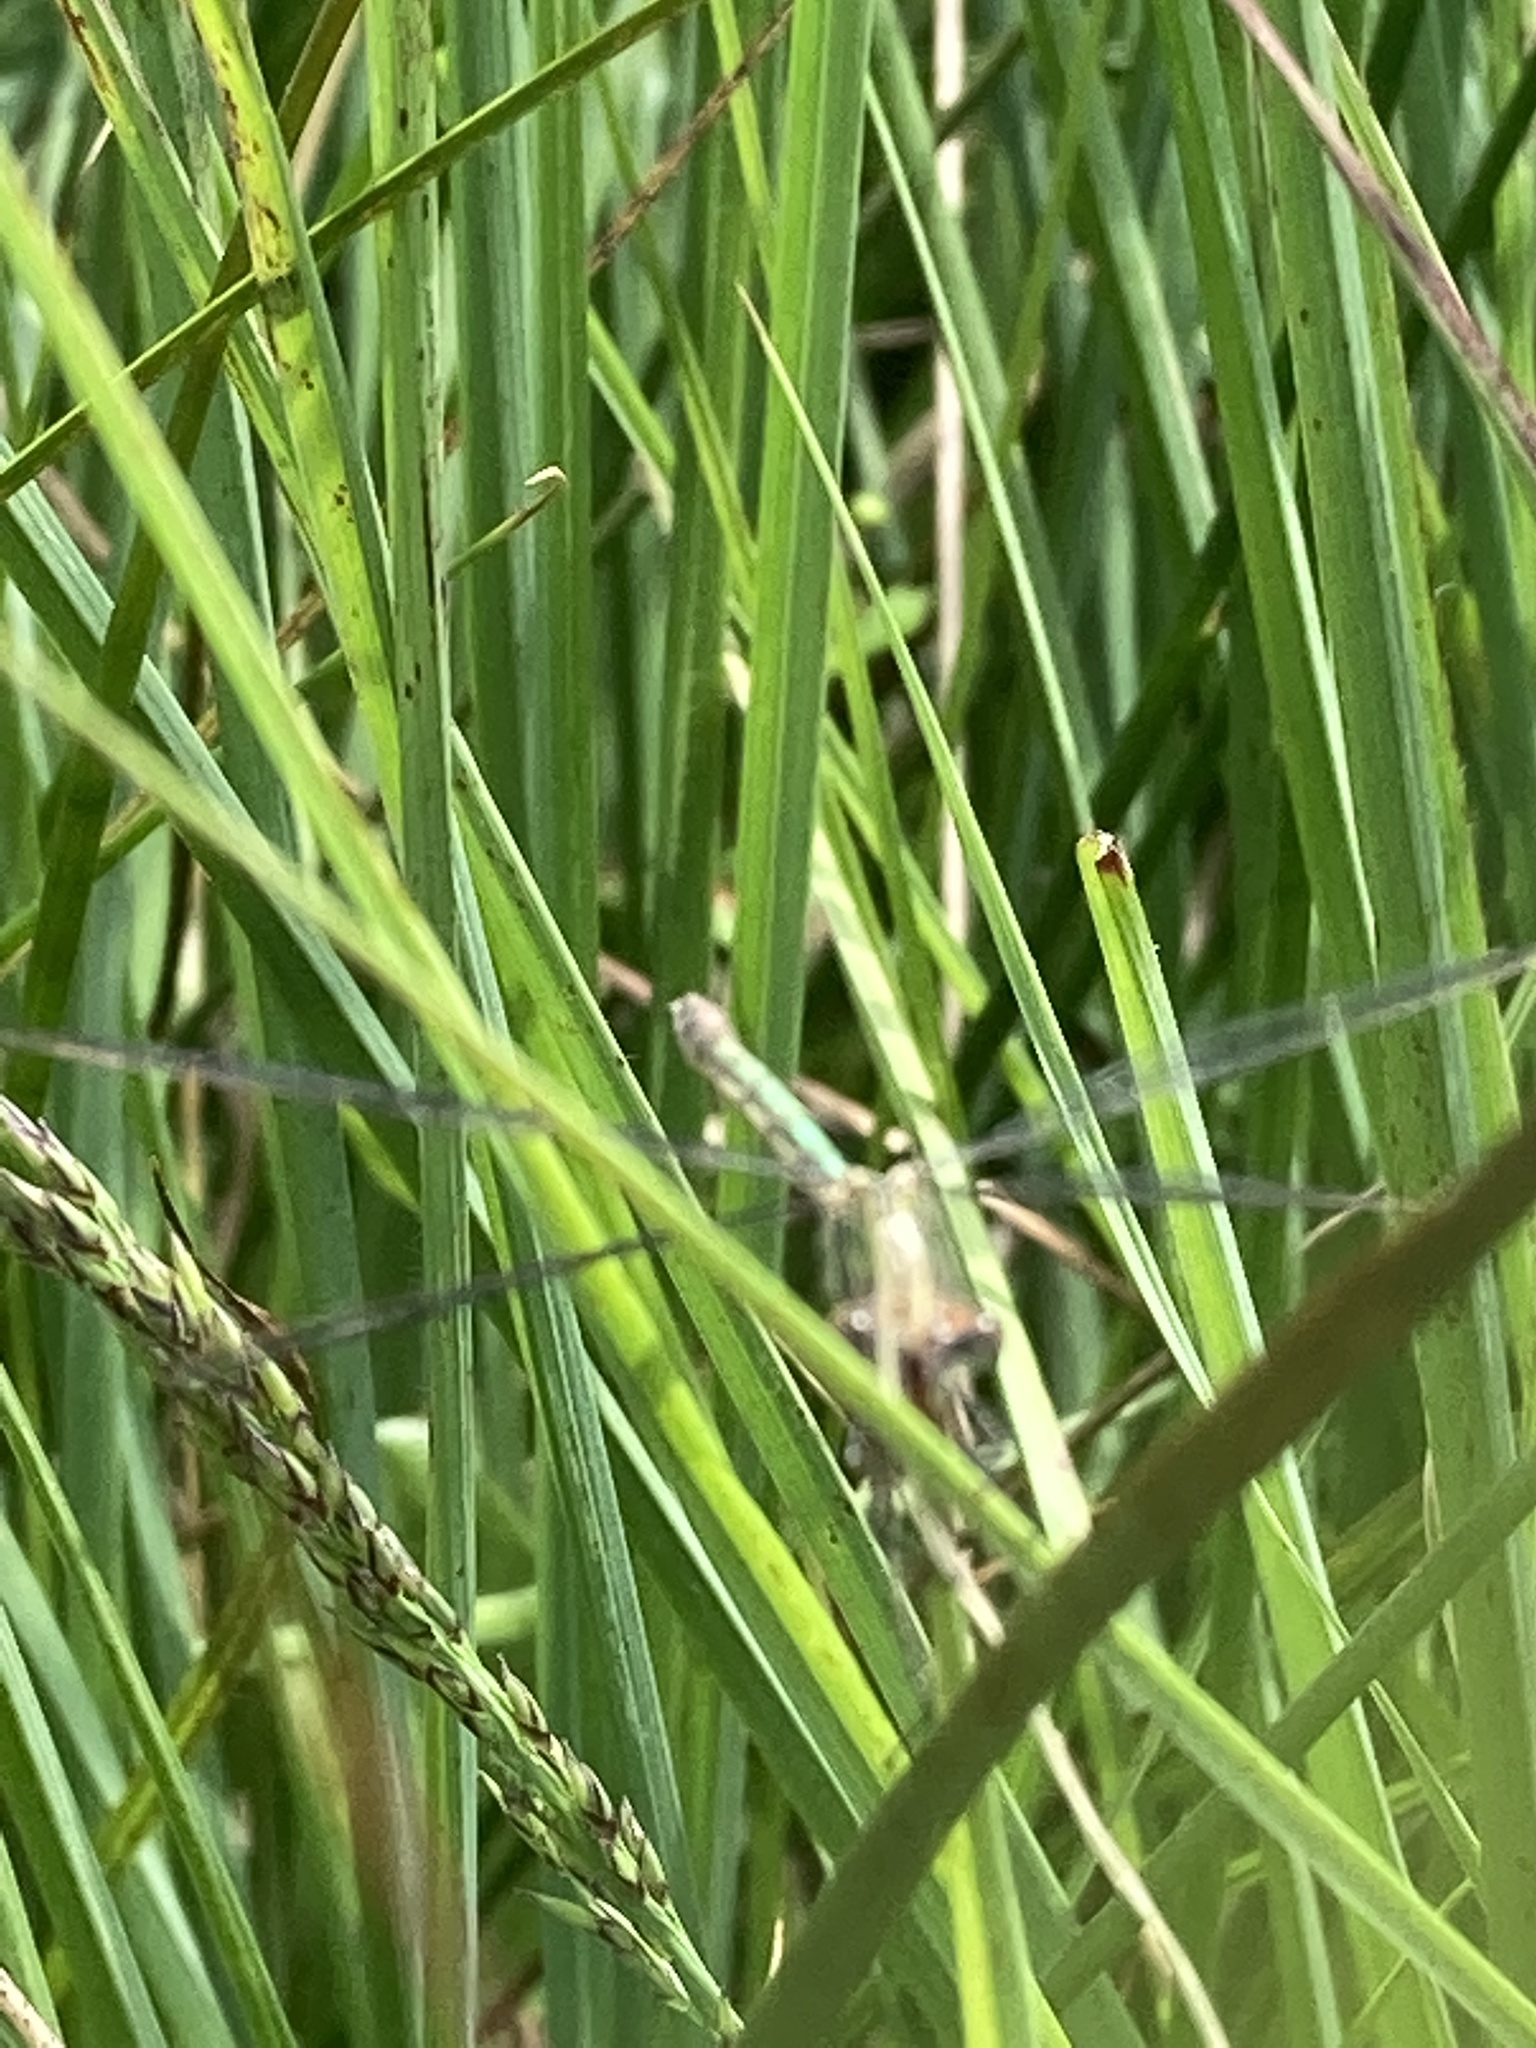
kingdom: Animalia
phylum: Arthropoda
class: Insecta
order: Odonata
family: Lestidae
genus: Lestes
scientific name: Lestes sponsa
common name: Common spreadwing
